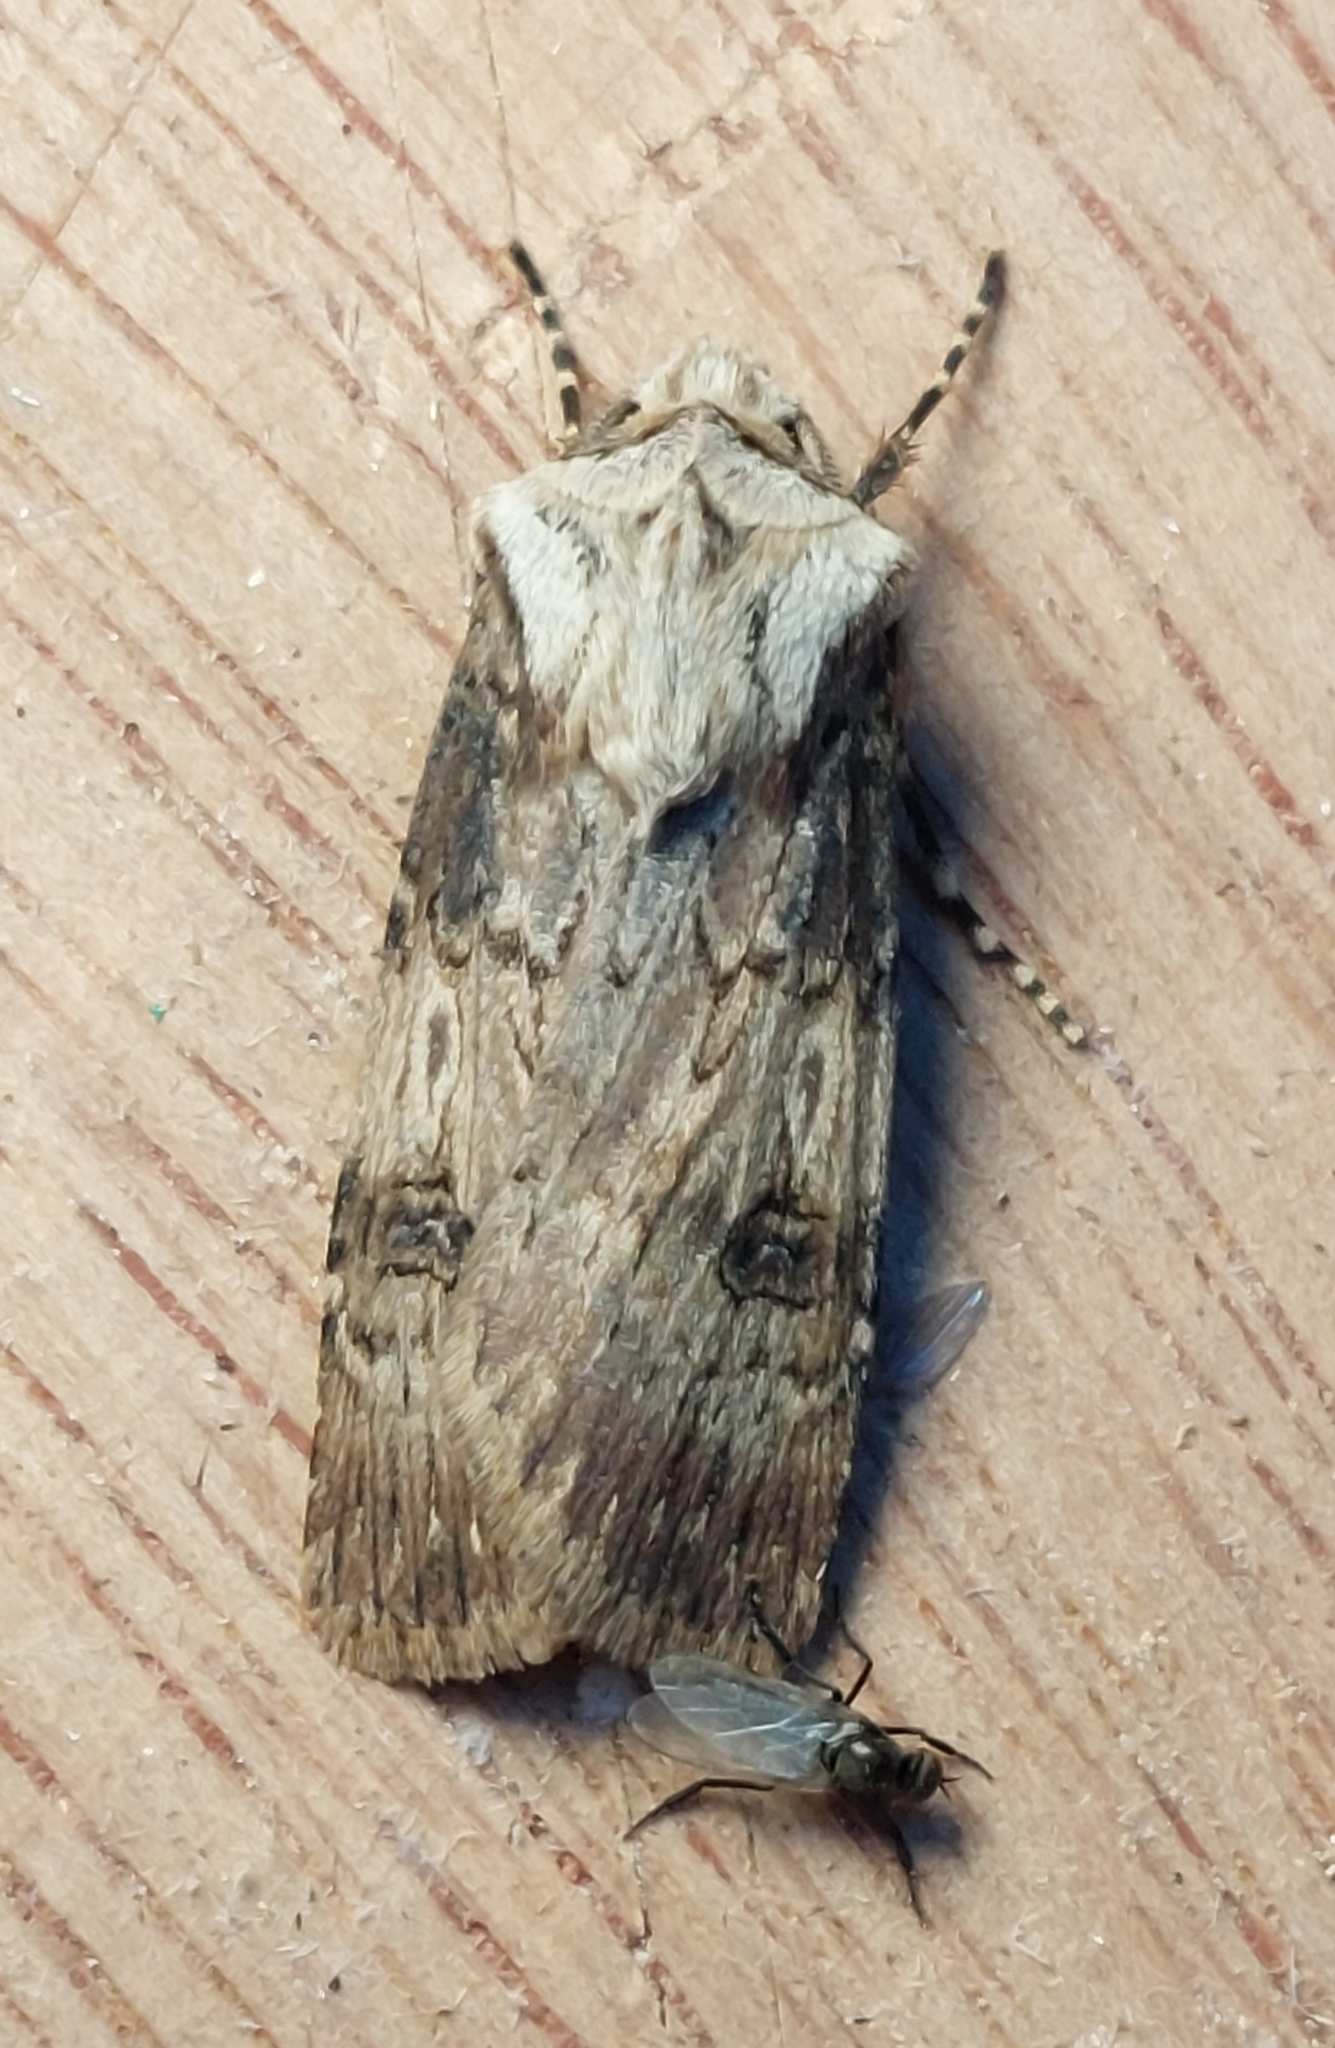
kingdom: Animalia
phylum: Arthropoda
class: Insecta
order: Lepidoptera
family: Noctuidae
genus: Agrotis
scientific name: Agrotis puta
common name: Shuttle-shaped dart
